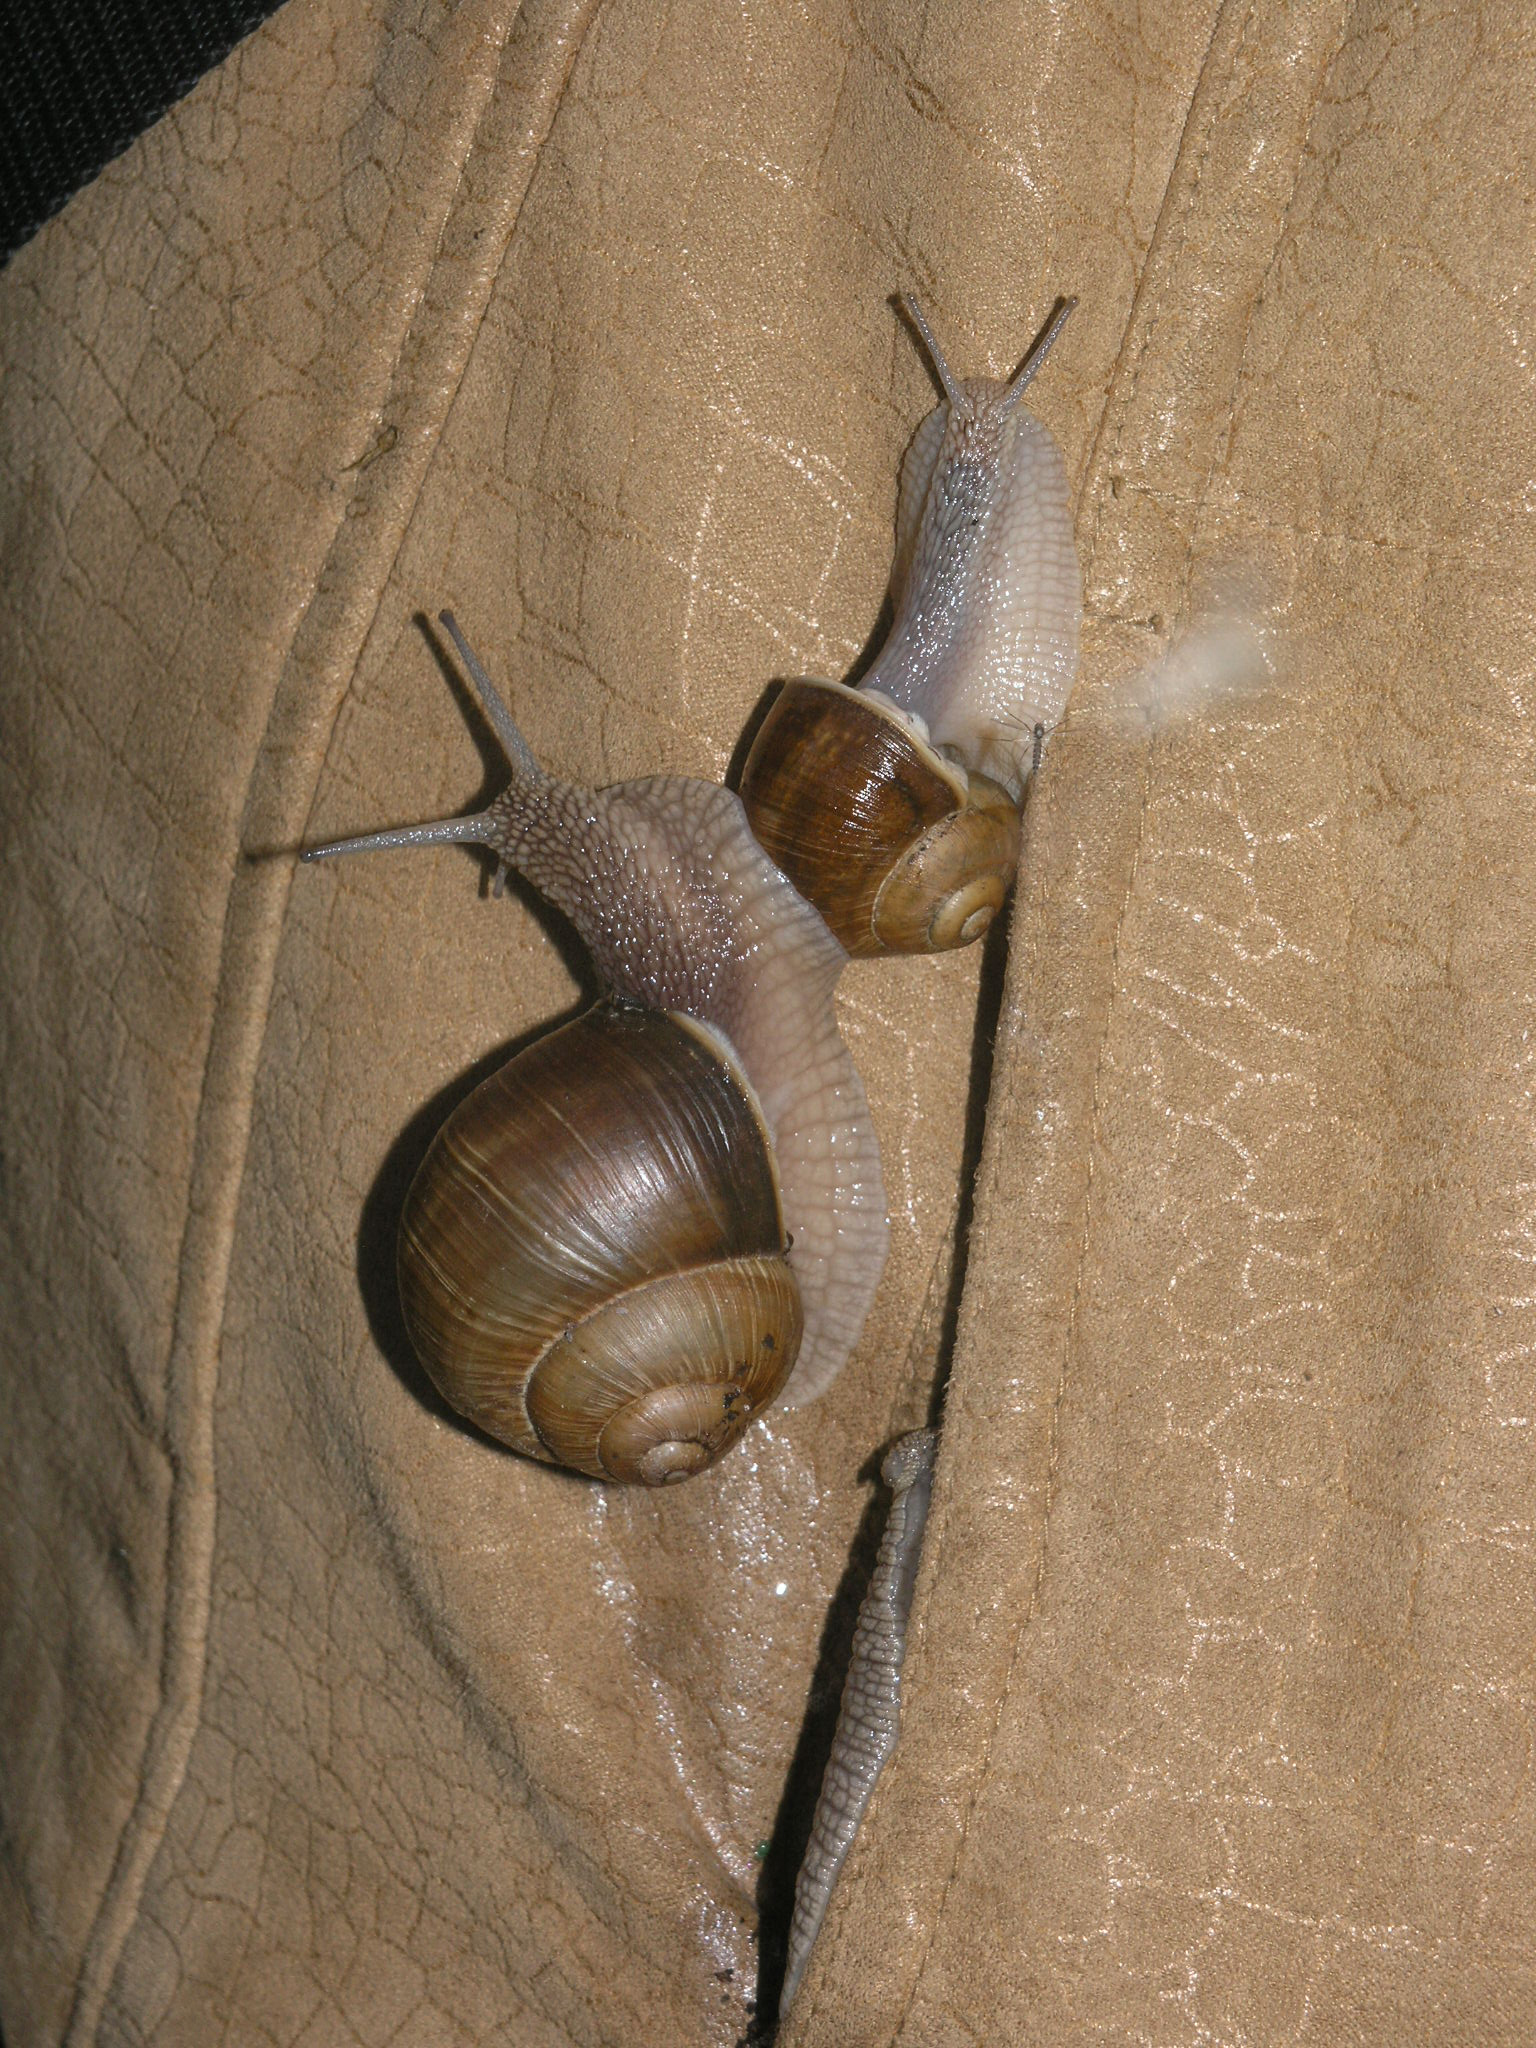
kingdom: Animalia
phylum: Mollusca
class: Gastropoda
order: Stylommatophora
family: Helicidae
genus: Helix
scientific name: Helix pomatia
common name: Roman snail
